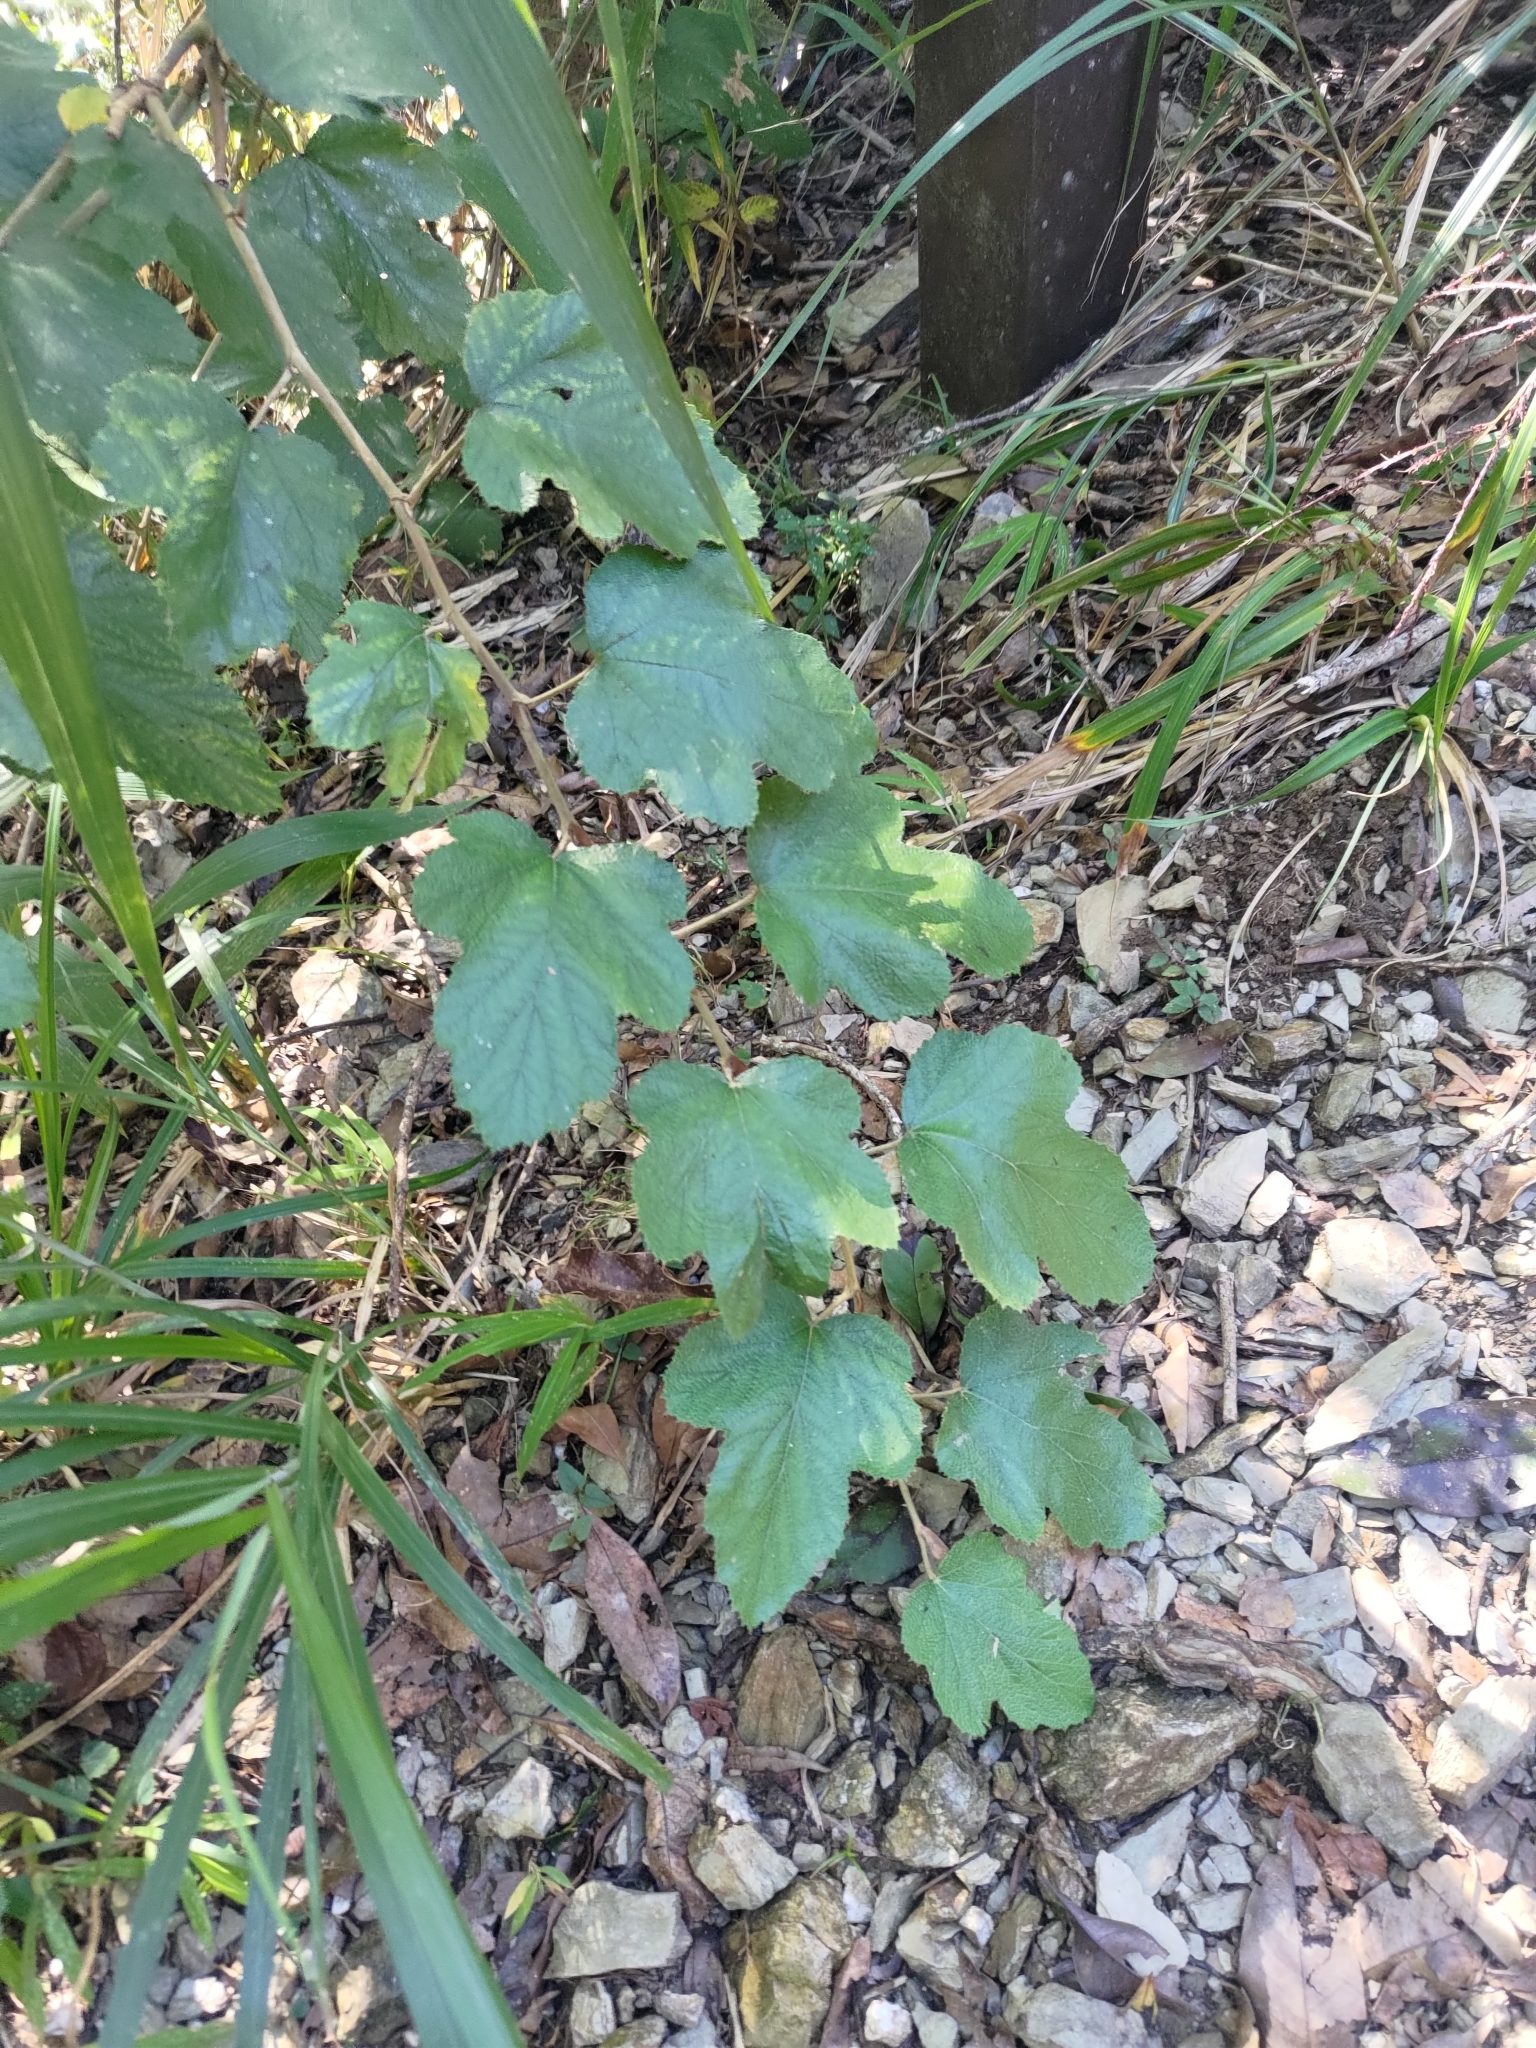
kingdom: Plantae
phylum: Tracheophyta
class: Magnoliopsida
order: Rosales
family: Rosaceae
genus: Rubus
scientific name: Rubus formosensis
